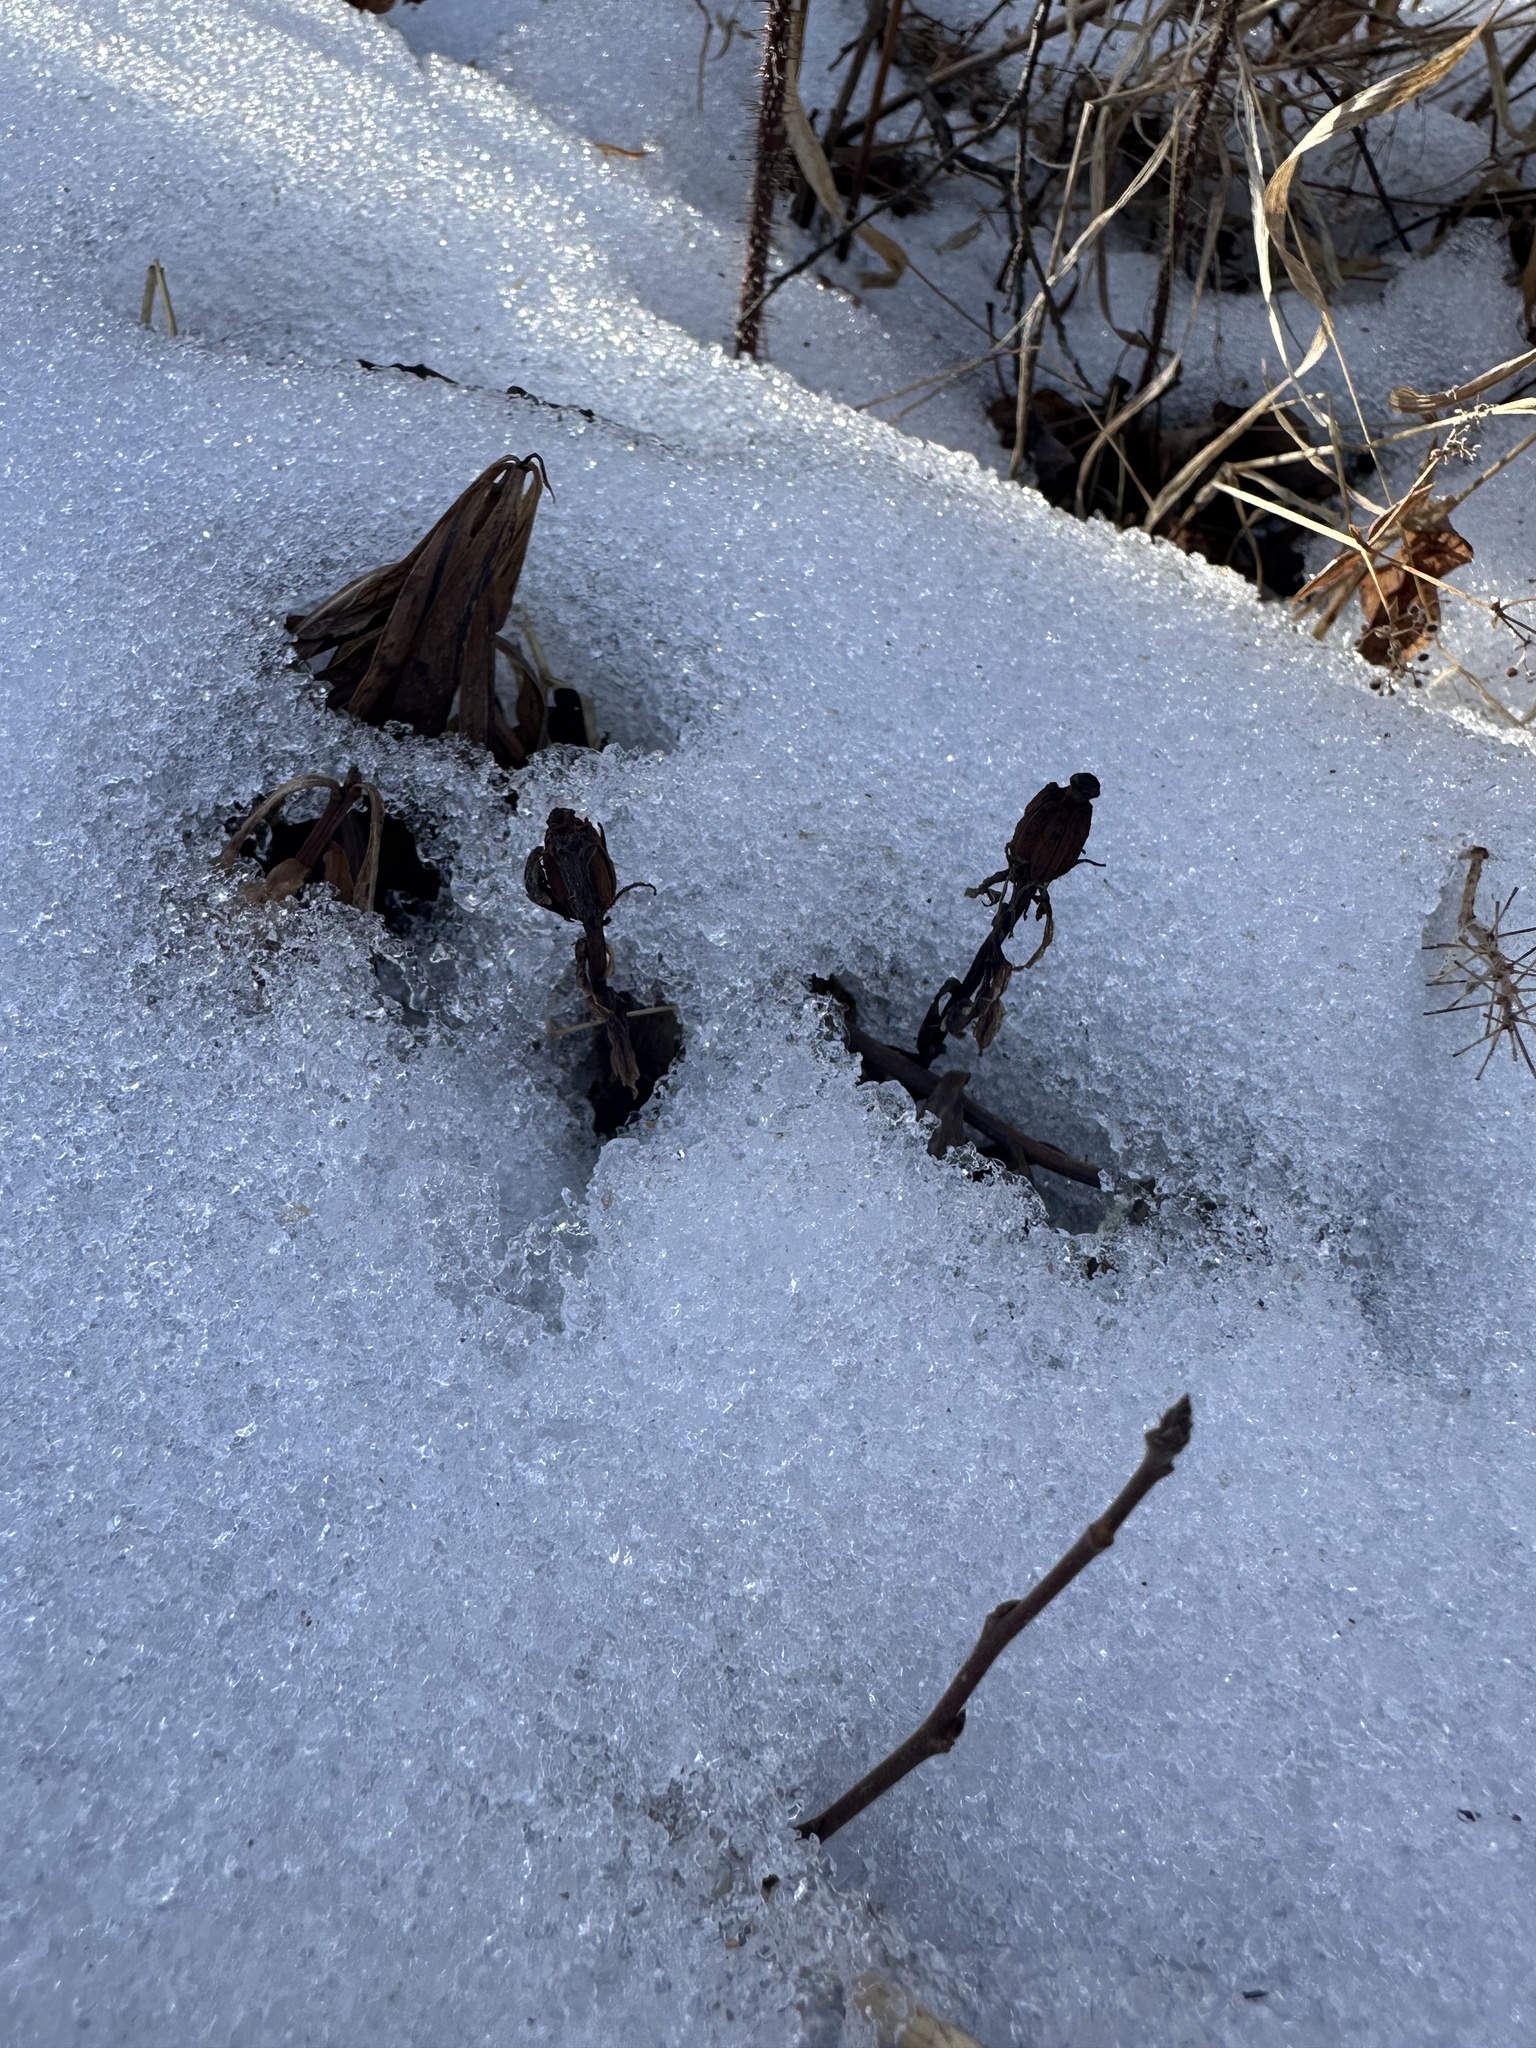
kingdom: Plantae
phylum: Tracheophyta
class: Magnoliopsida
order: Ericales
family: Ericaceae
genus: Monotropa
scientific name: Monotropa uniflora
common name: Convulsion root
